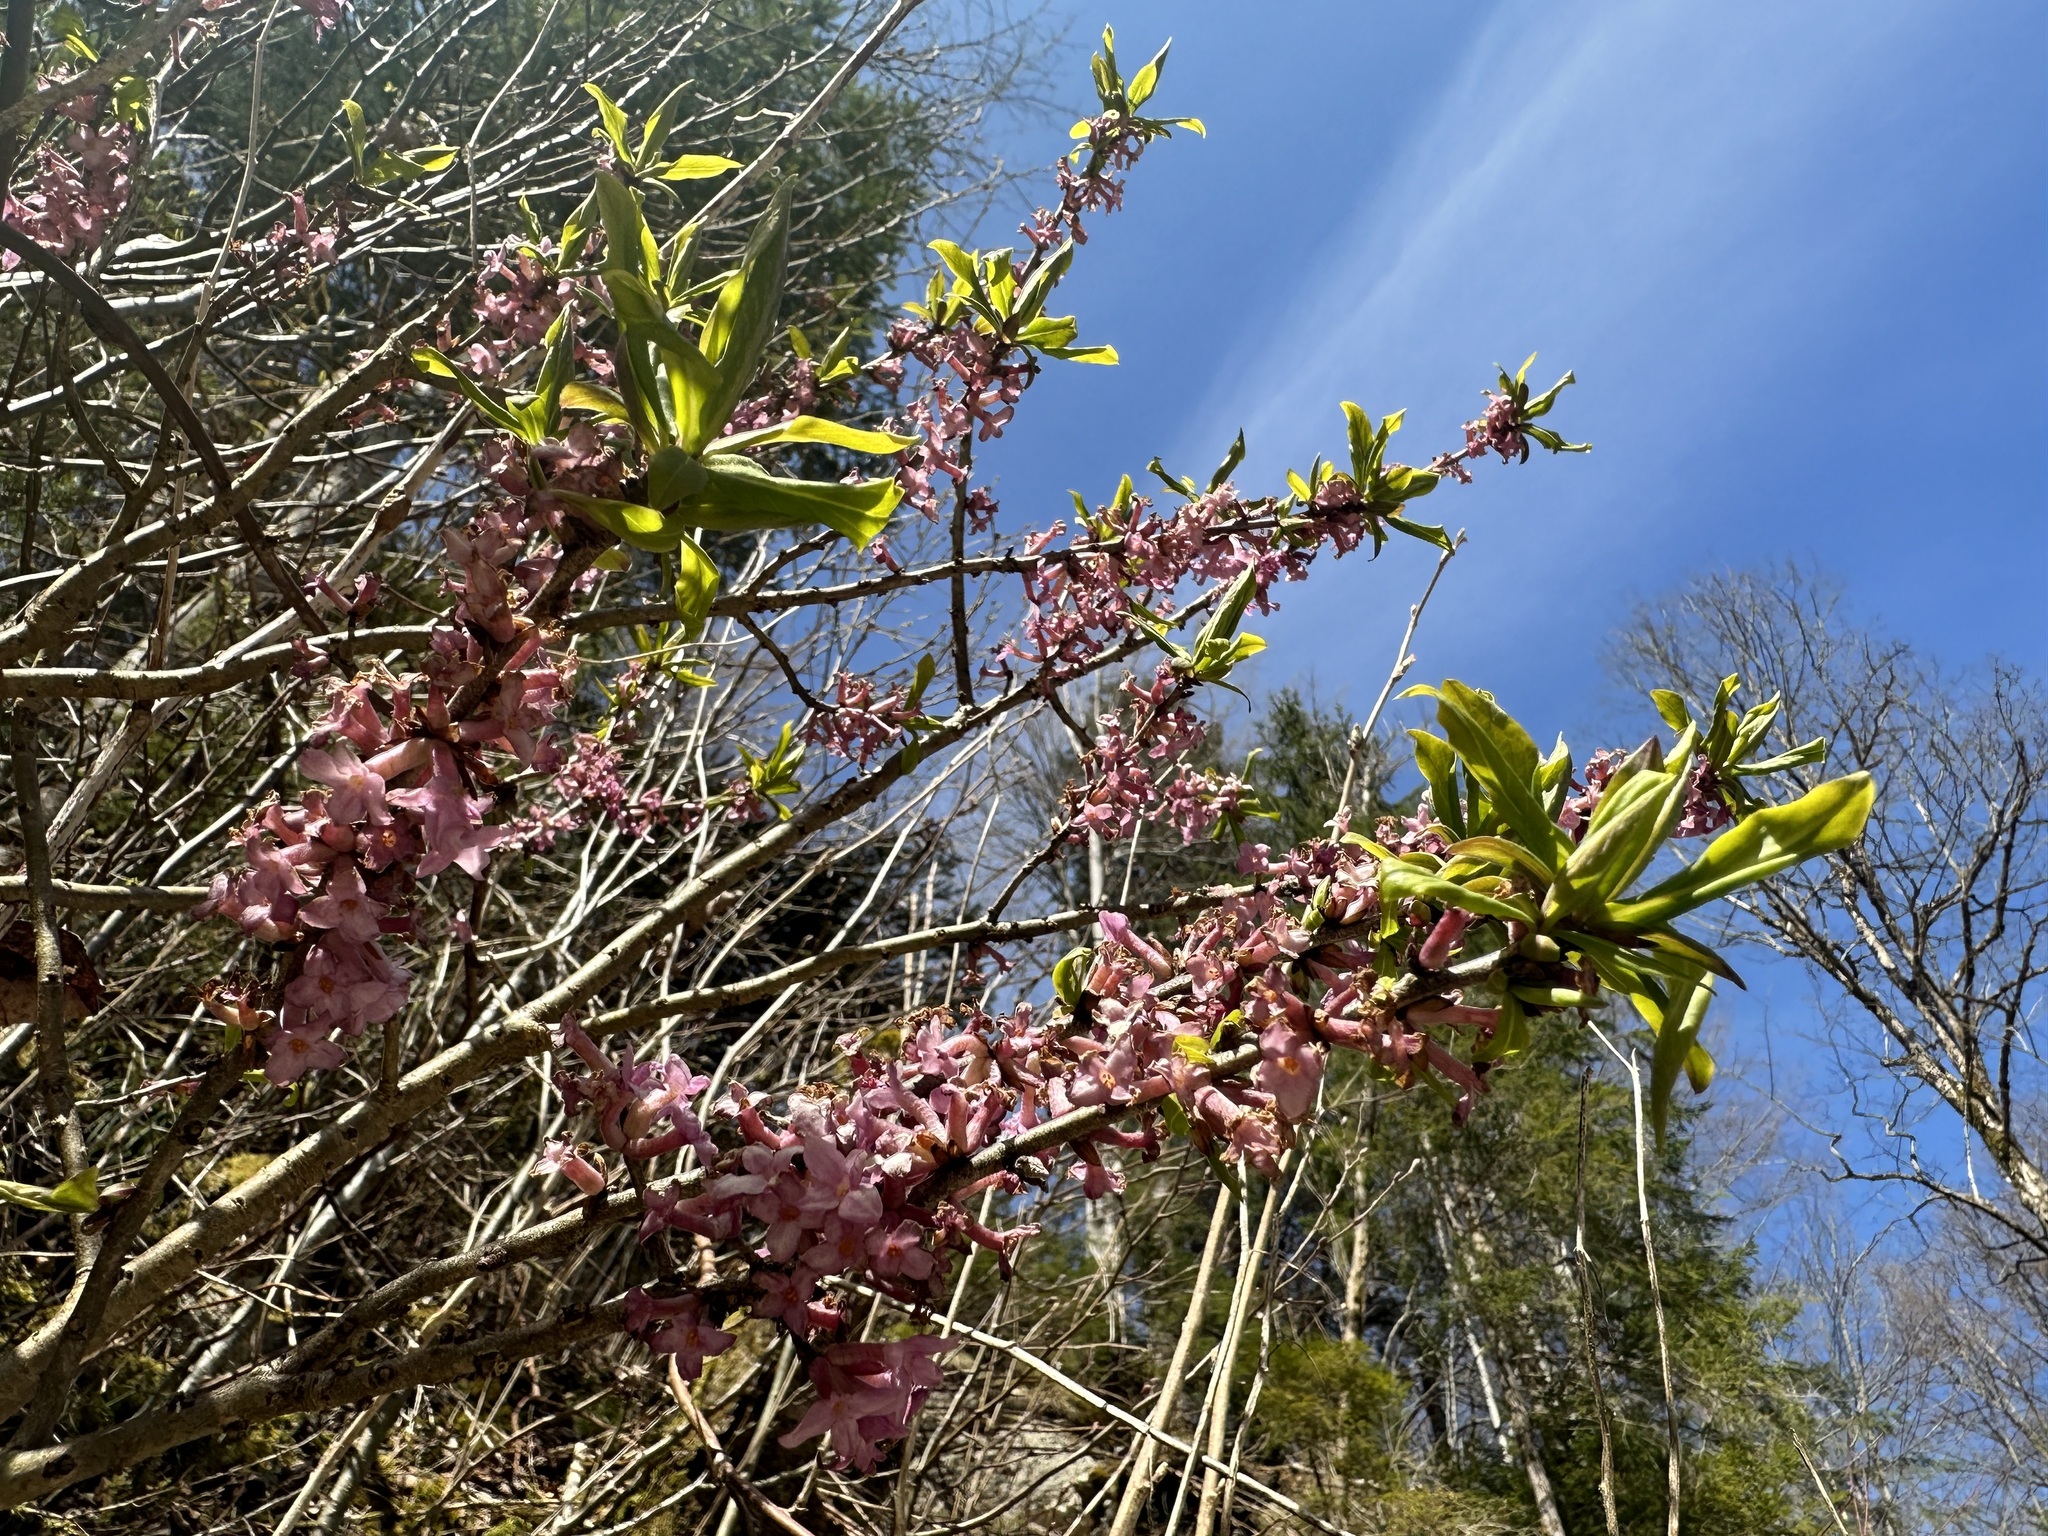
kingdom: Plantae
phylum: Tracheophyta
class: Magnoliopsida
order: Malvales
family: Thymelaeaceae
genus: Daphne
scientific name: Daphne mezereum
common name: Mezereon
